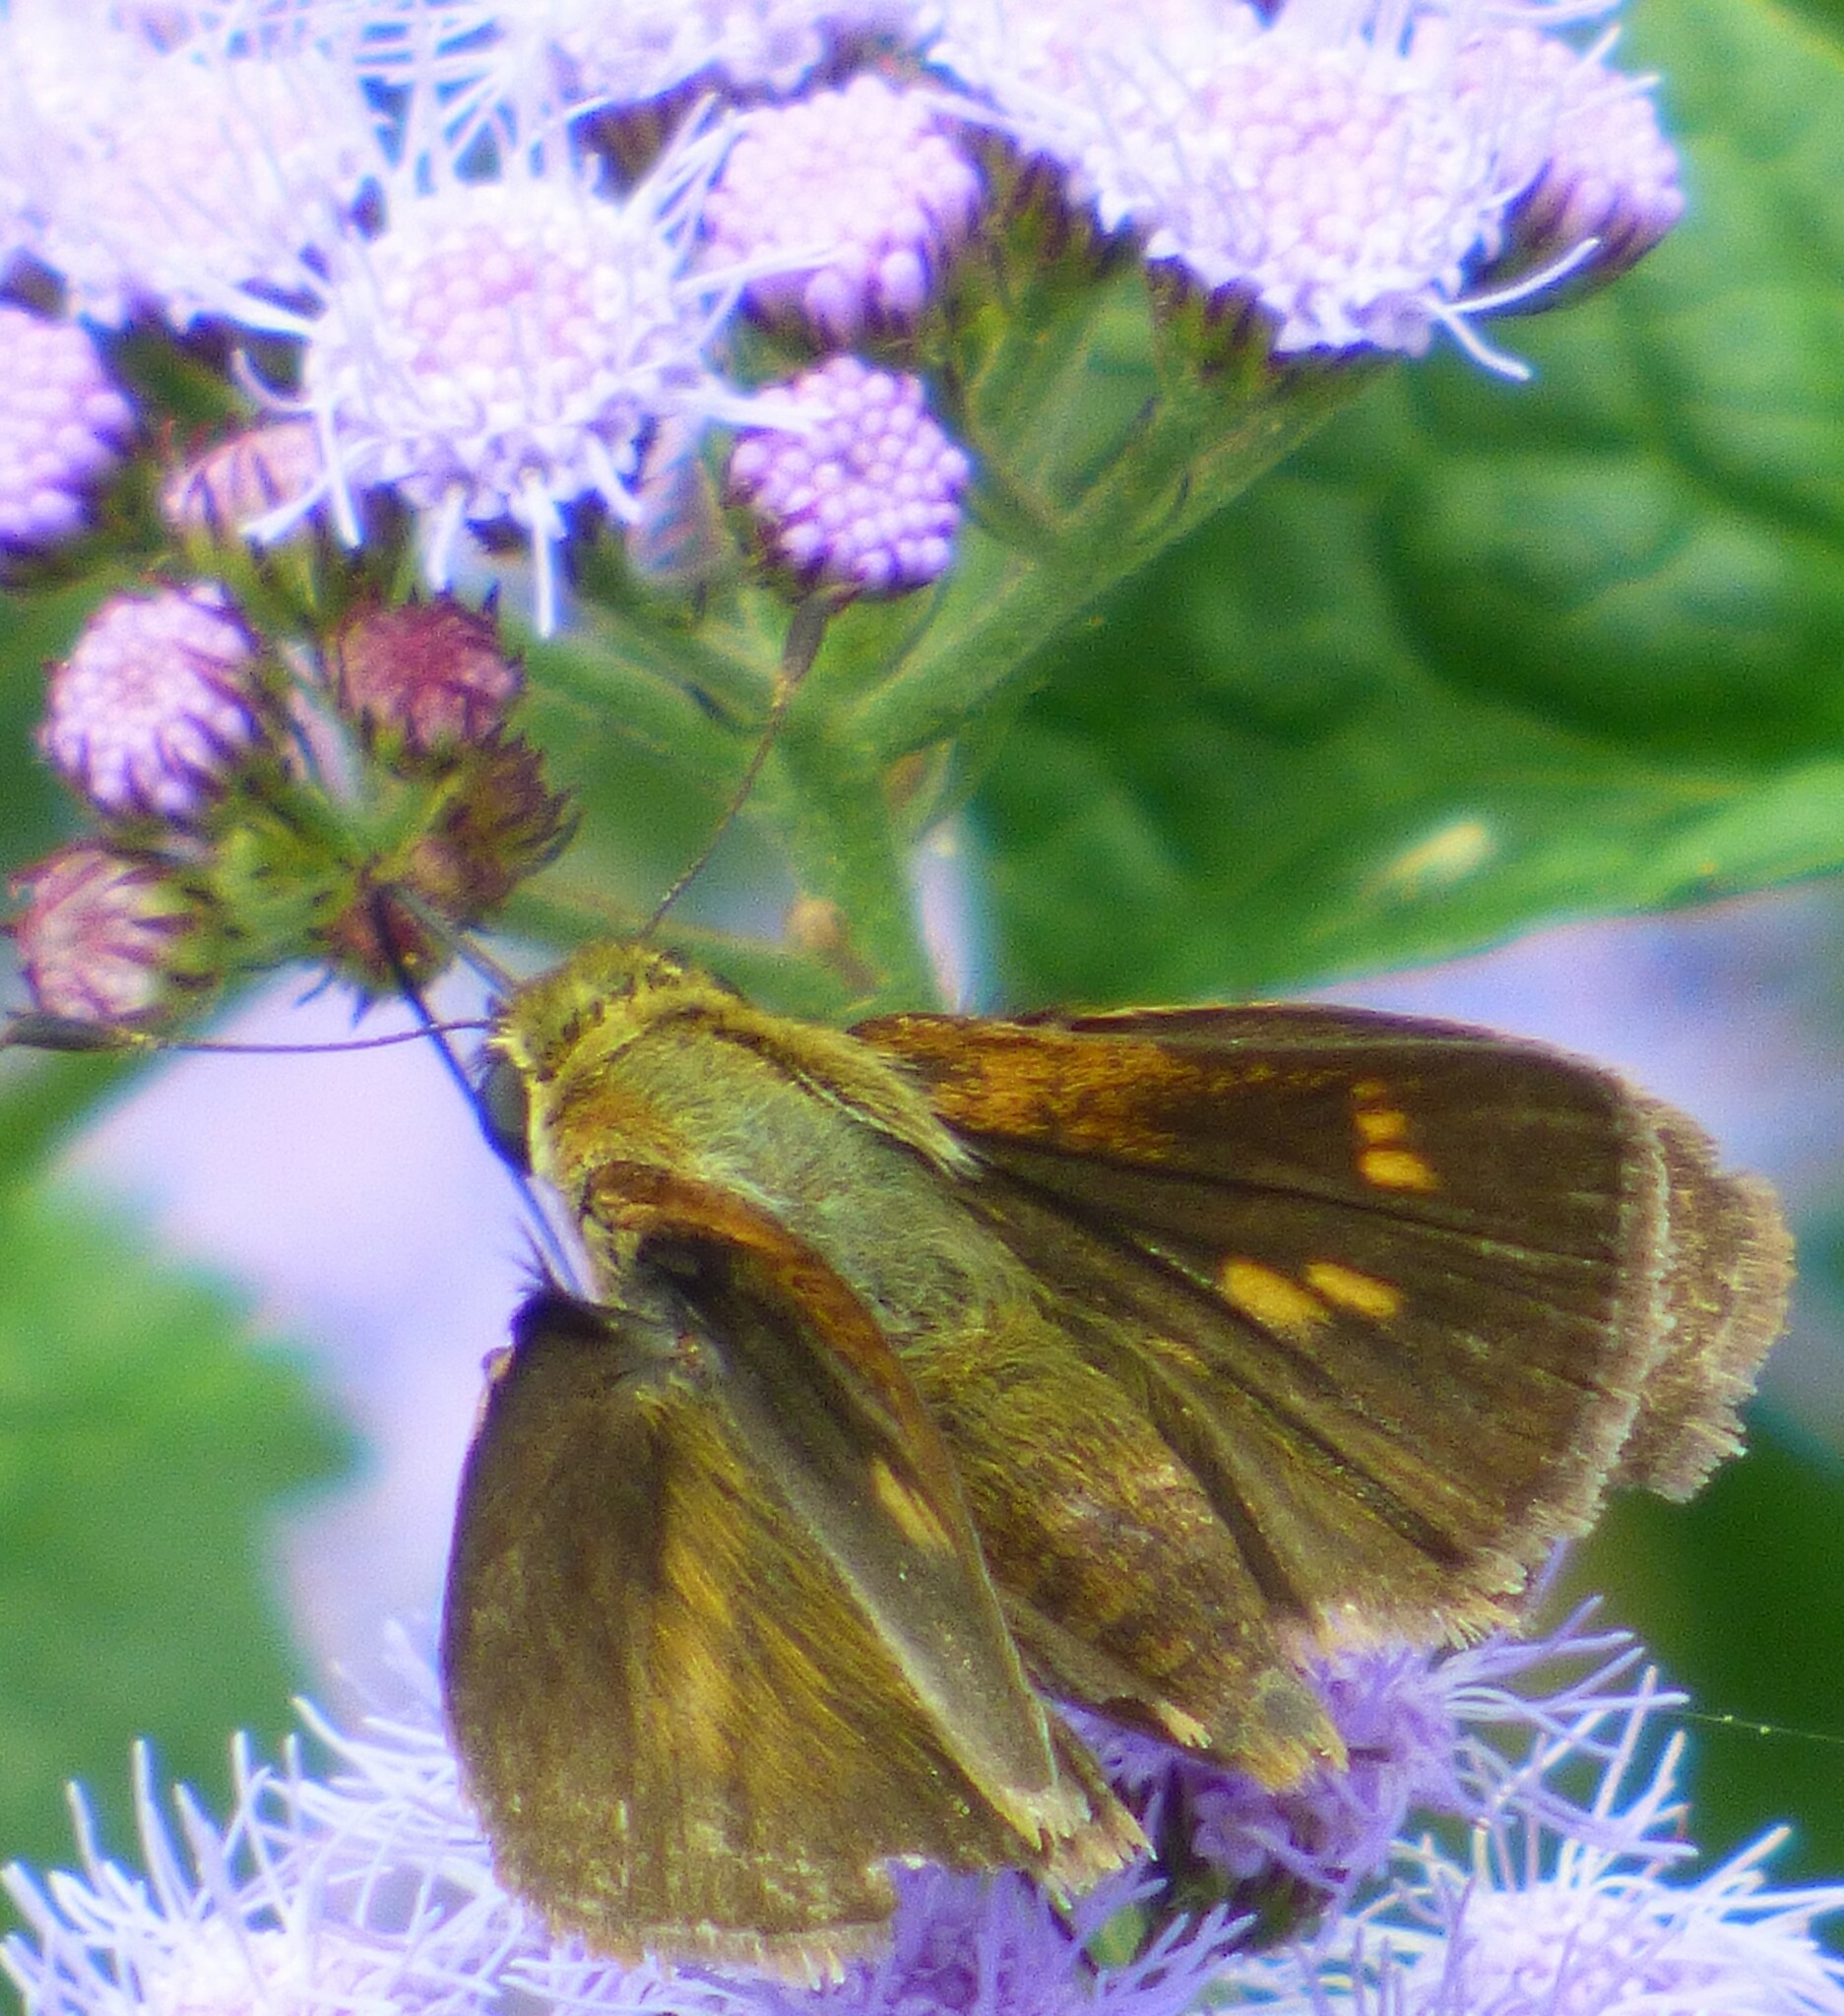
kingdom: Animalia
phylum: Arthropoda
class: Insecta
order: Lepidoptera
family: Hesperiidae
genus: Polites
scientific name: Polites otho
